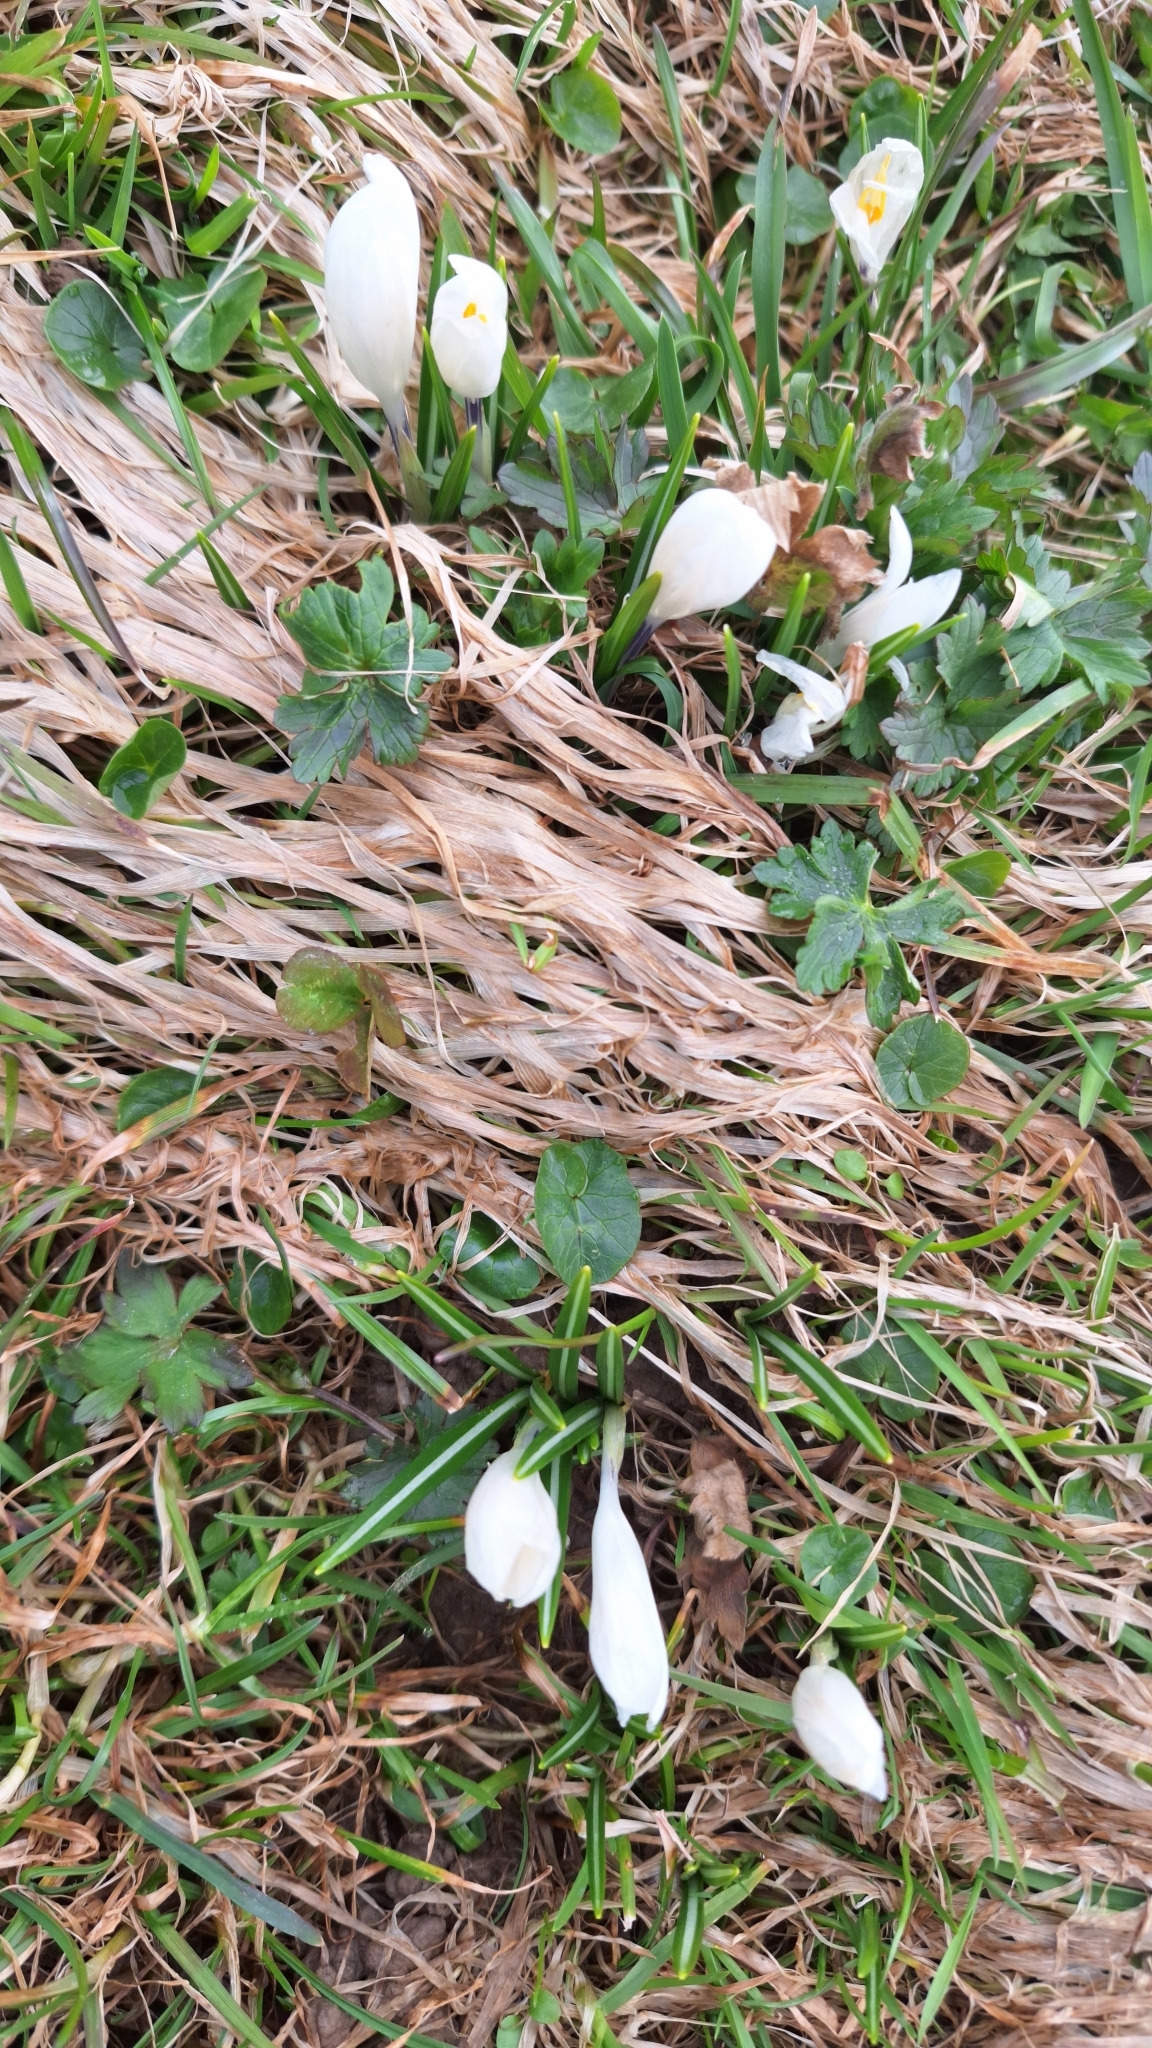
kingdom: Plantae
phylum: Tracheophyta
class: Liliopsida
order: Asparagales
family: Iridaceae
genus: Crocus
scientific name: Crocus vernus
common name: Spring crocus
